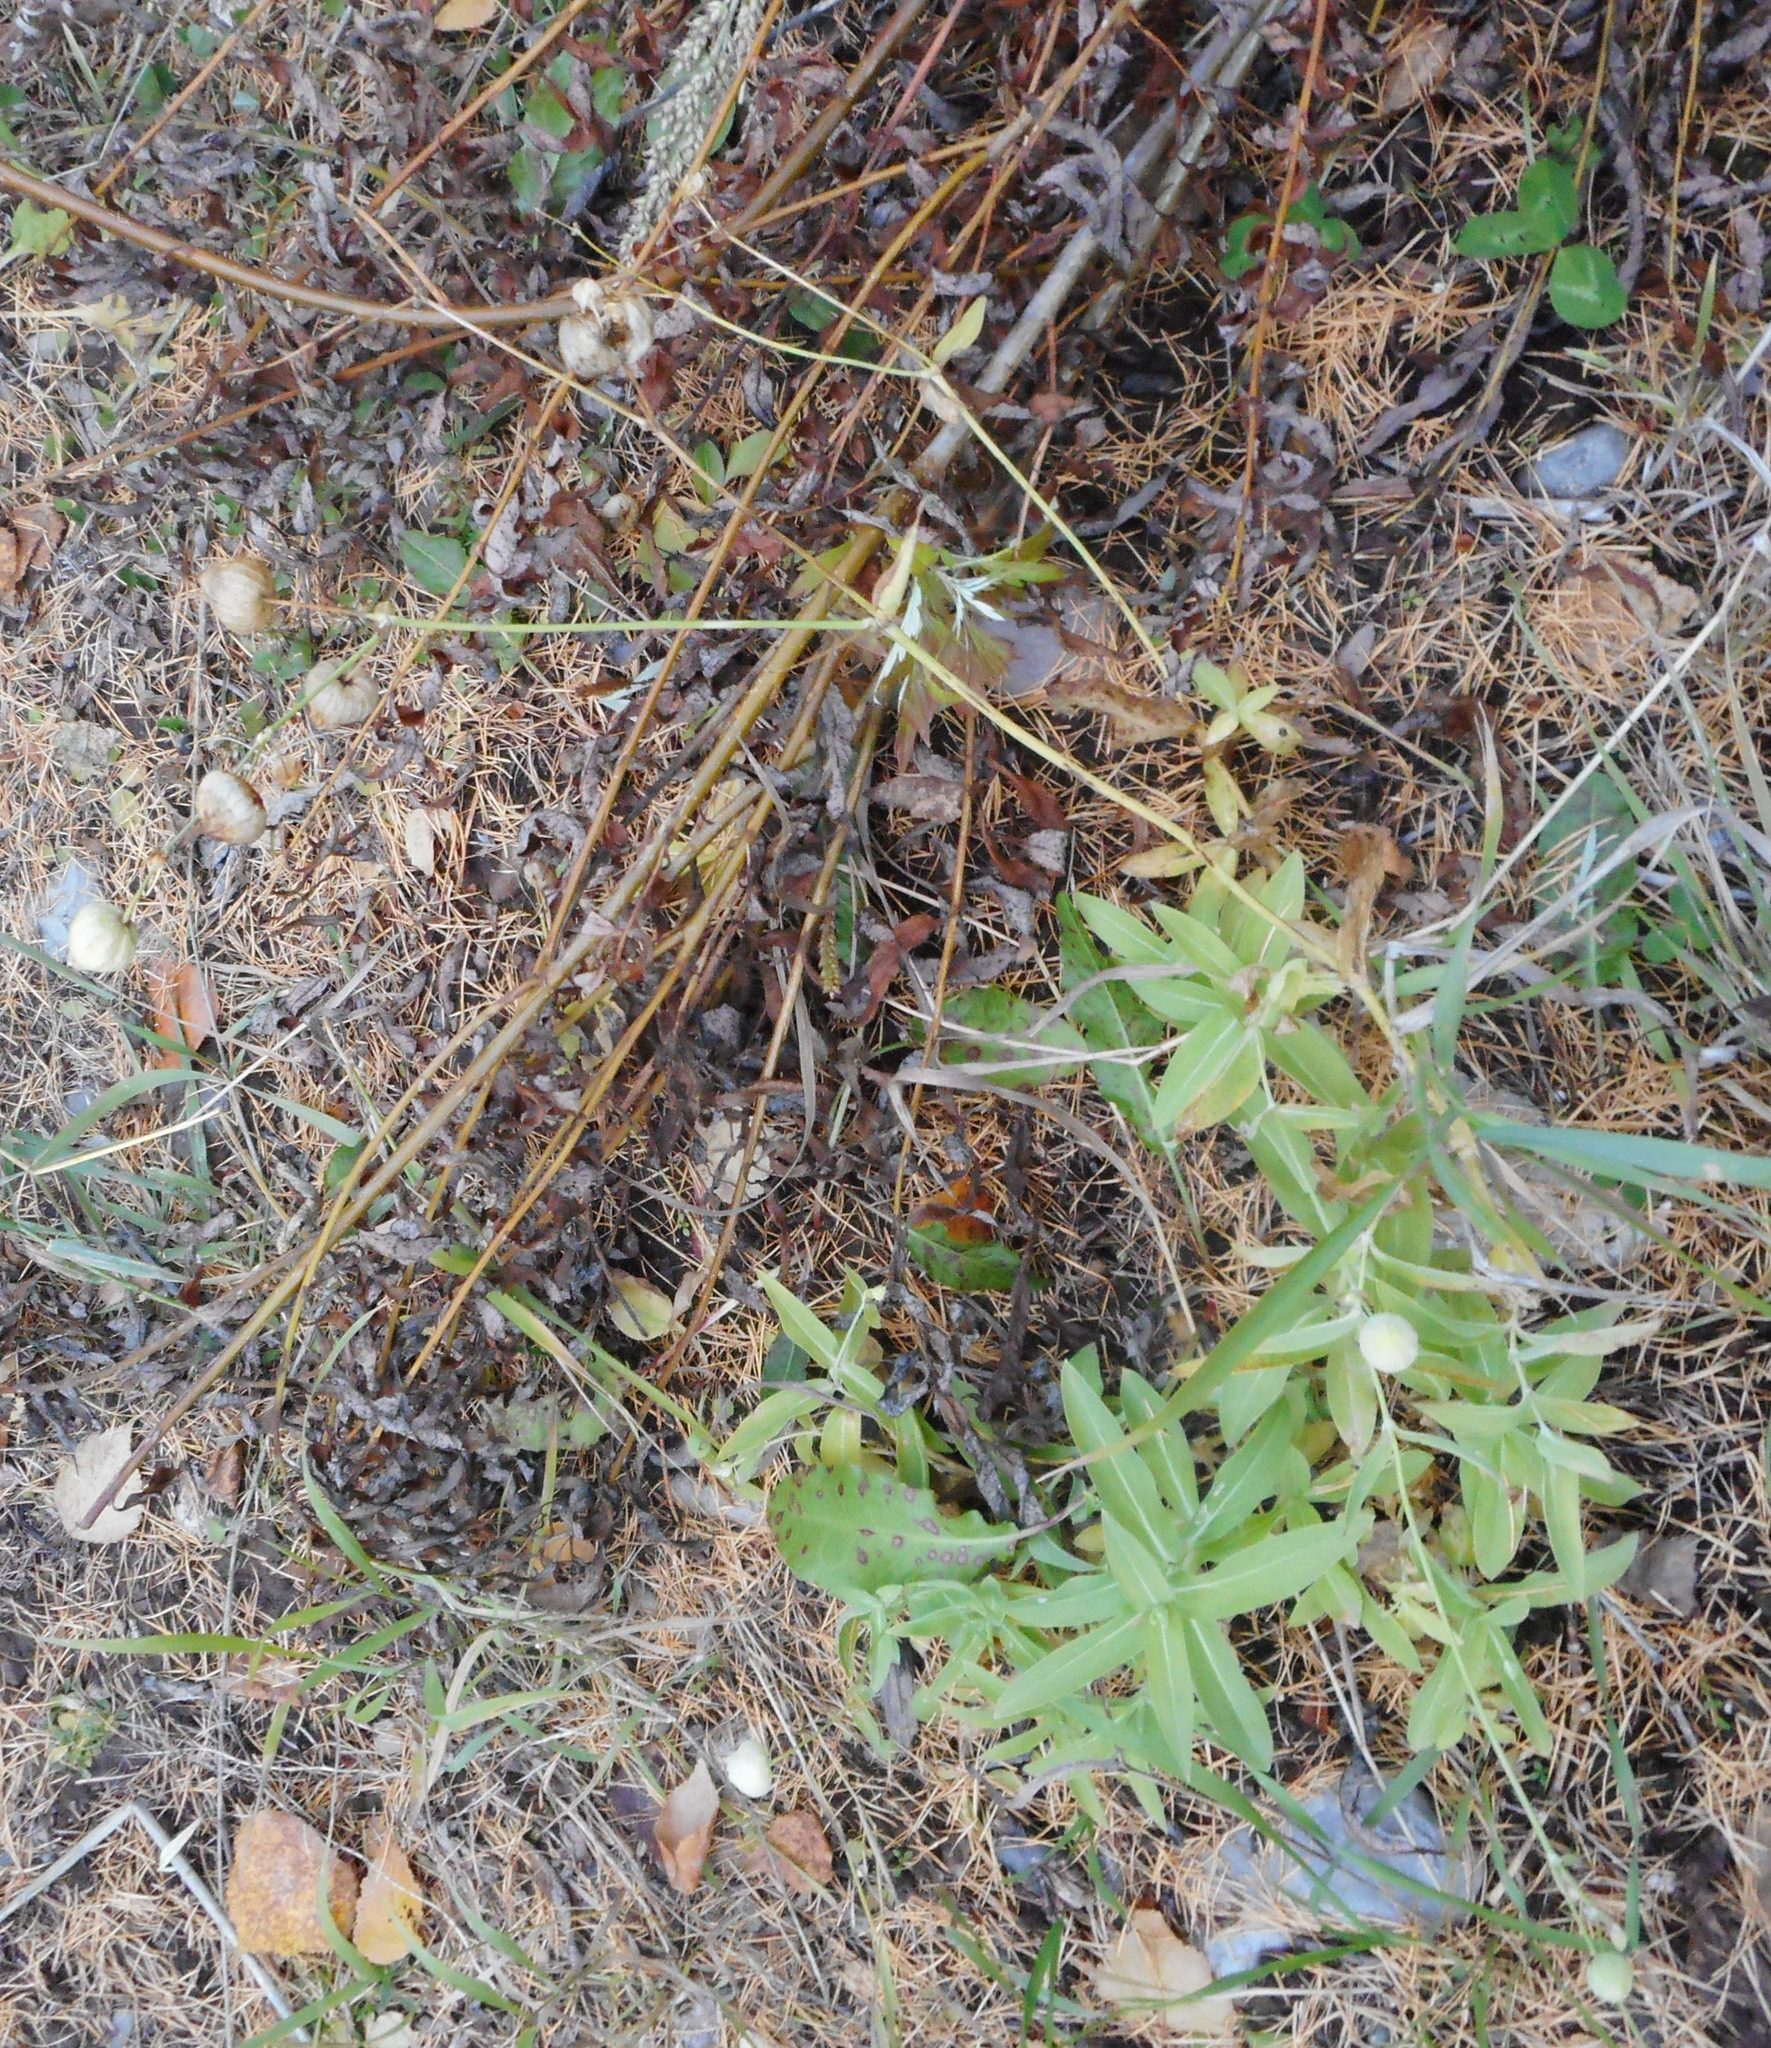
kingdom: Plantae
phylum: Tracheophyta
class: Magnoliopsida
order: Caryophyllales
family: Caryophyllaceae
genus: Silene
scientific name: Silene vulgaris
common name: Bladder campion
